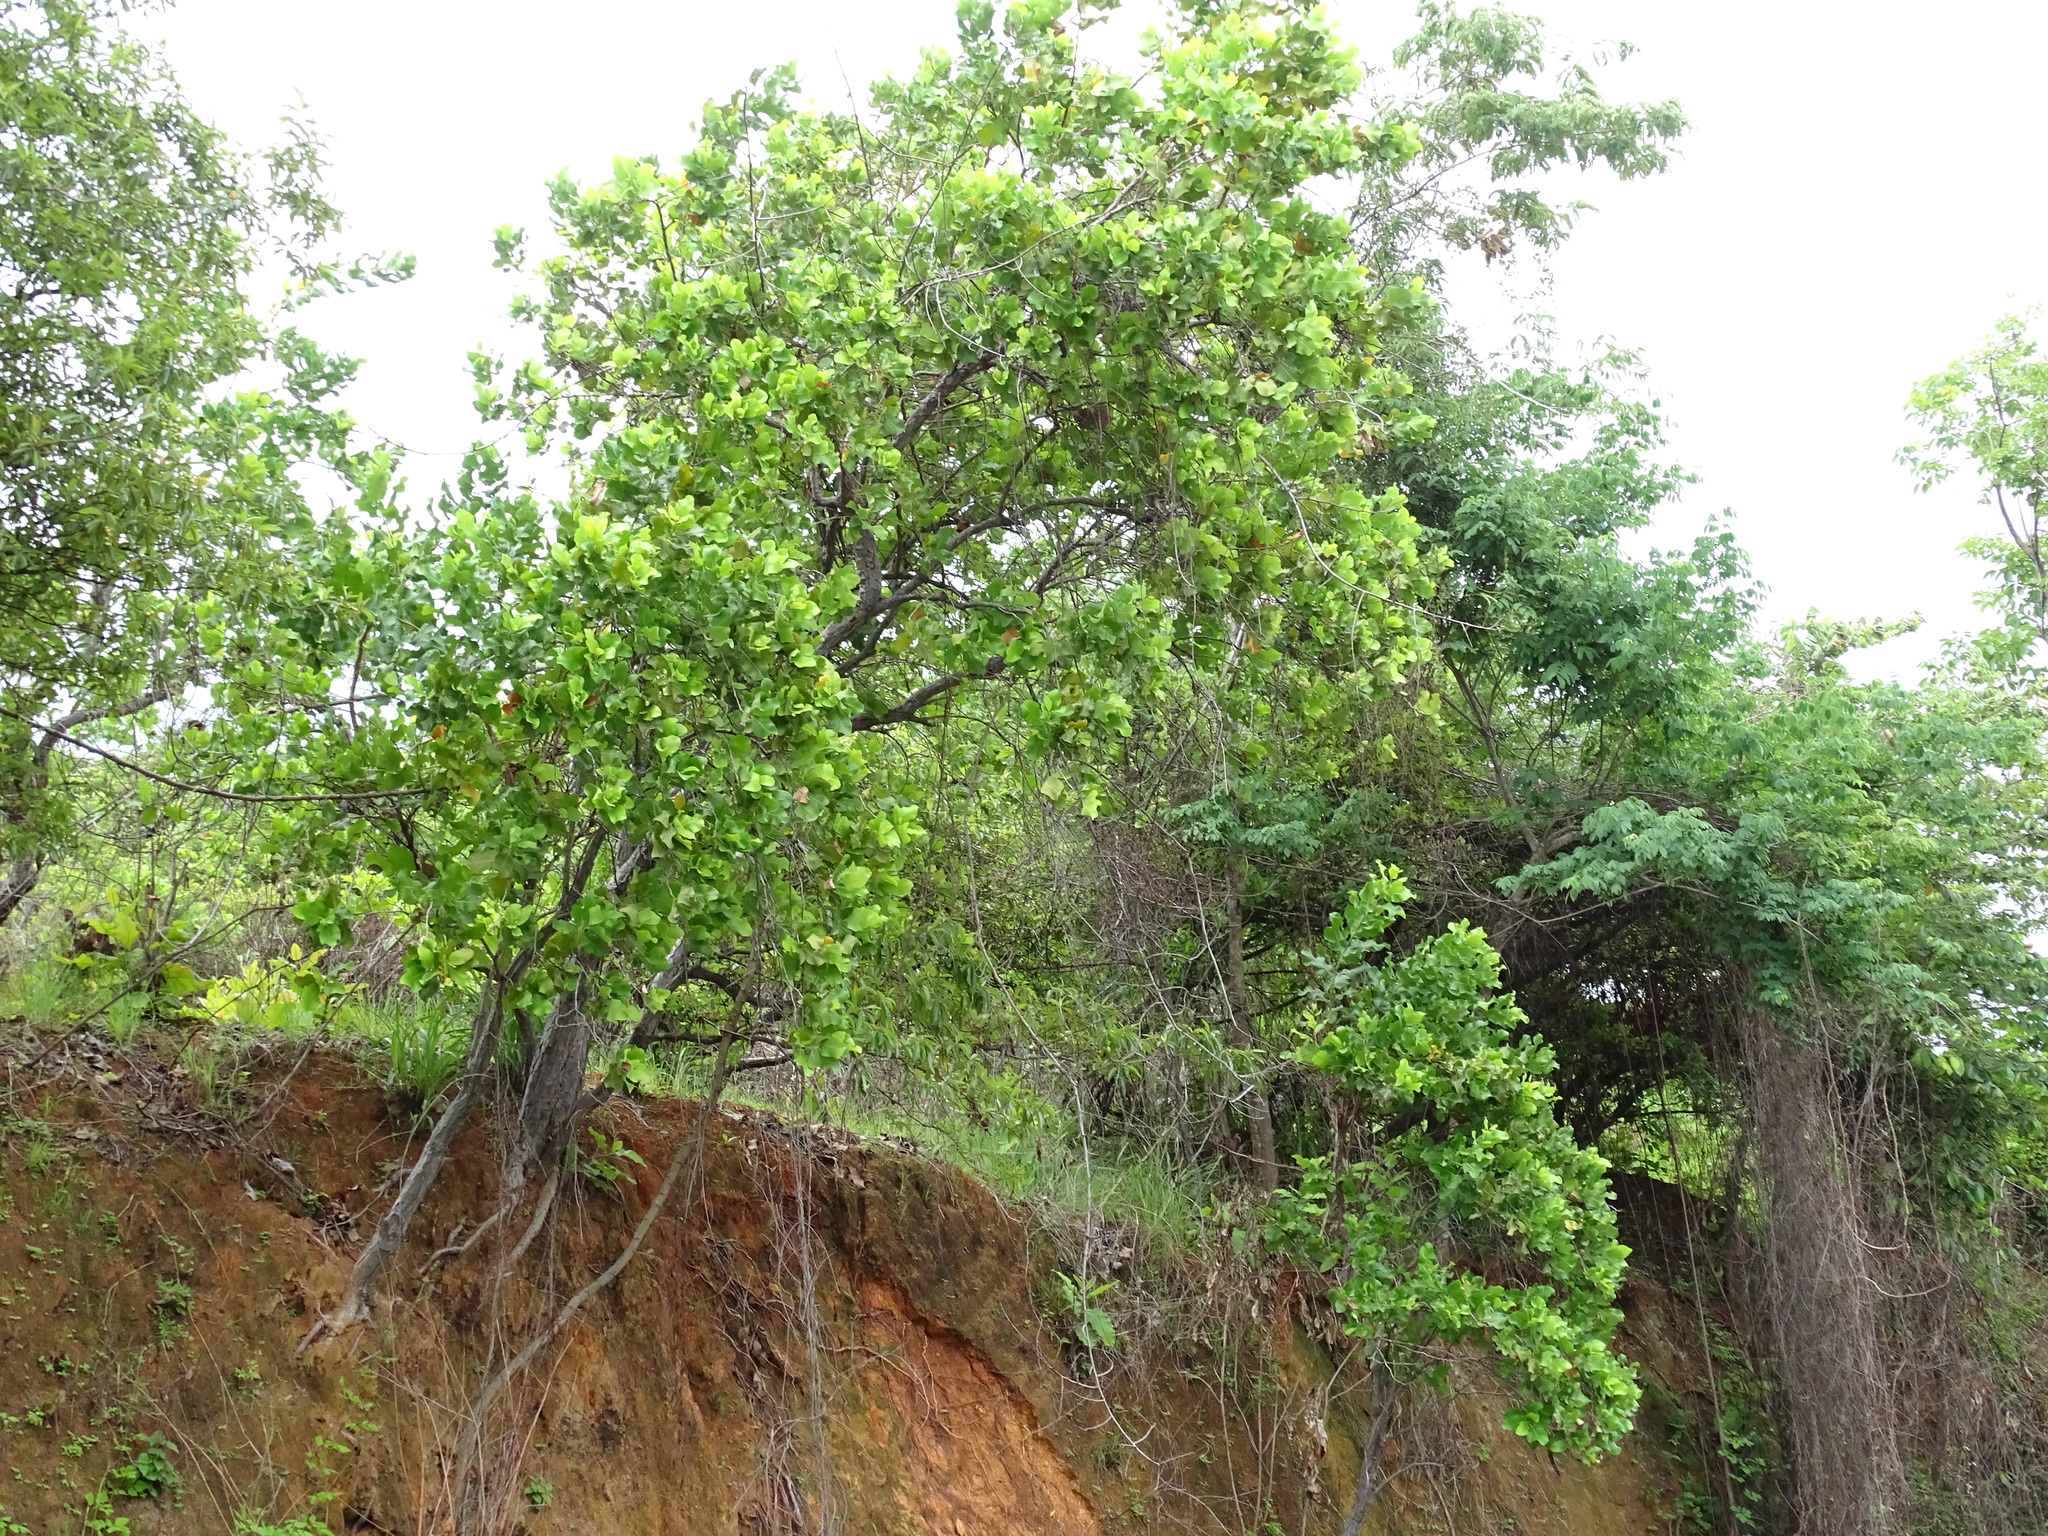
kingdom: Plantae
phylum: Tracheophyta
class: Magnoliopsida
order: Dilleniales
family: Dilleniaceae
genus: Curatella
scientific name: Curatella americana
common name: Sandpaper tree
